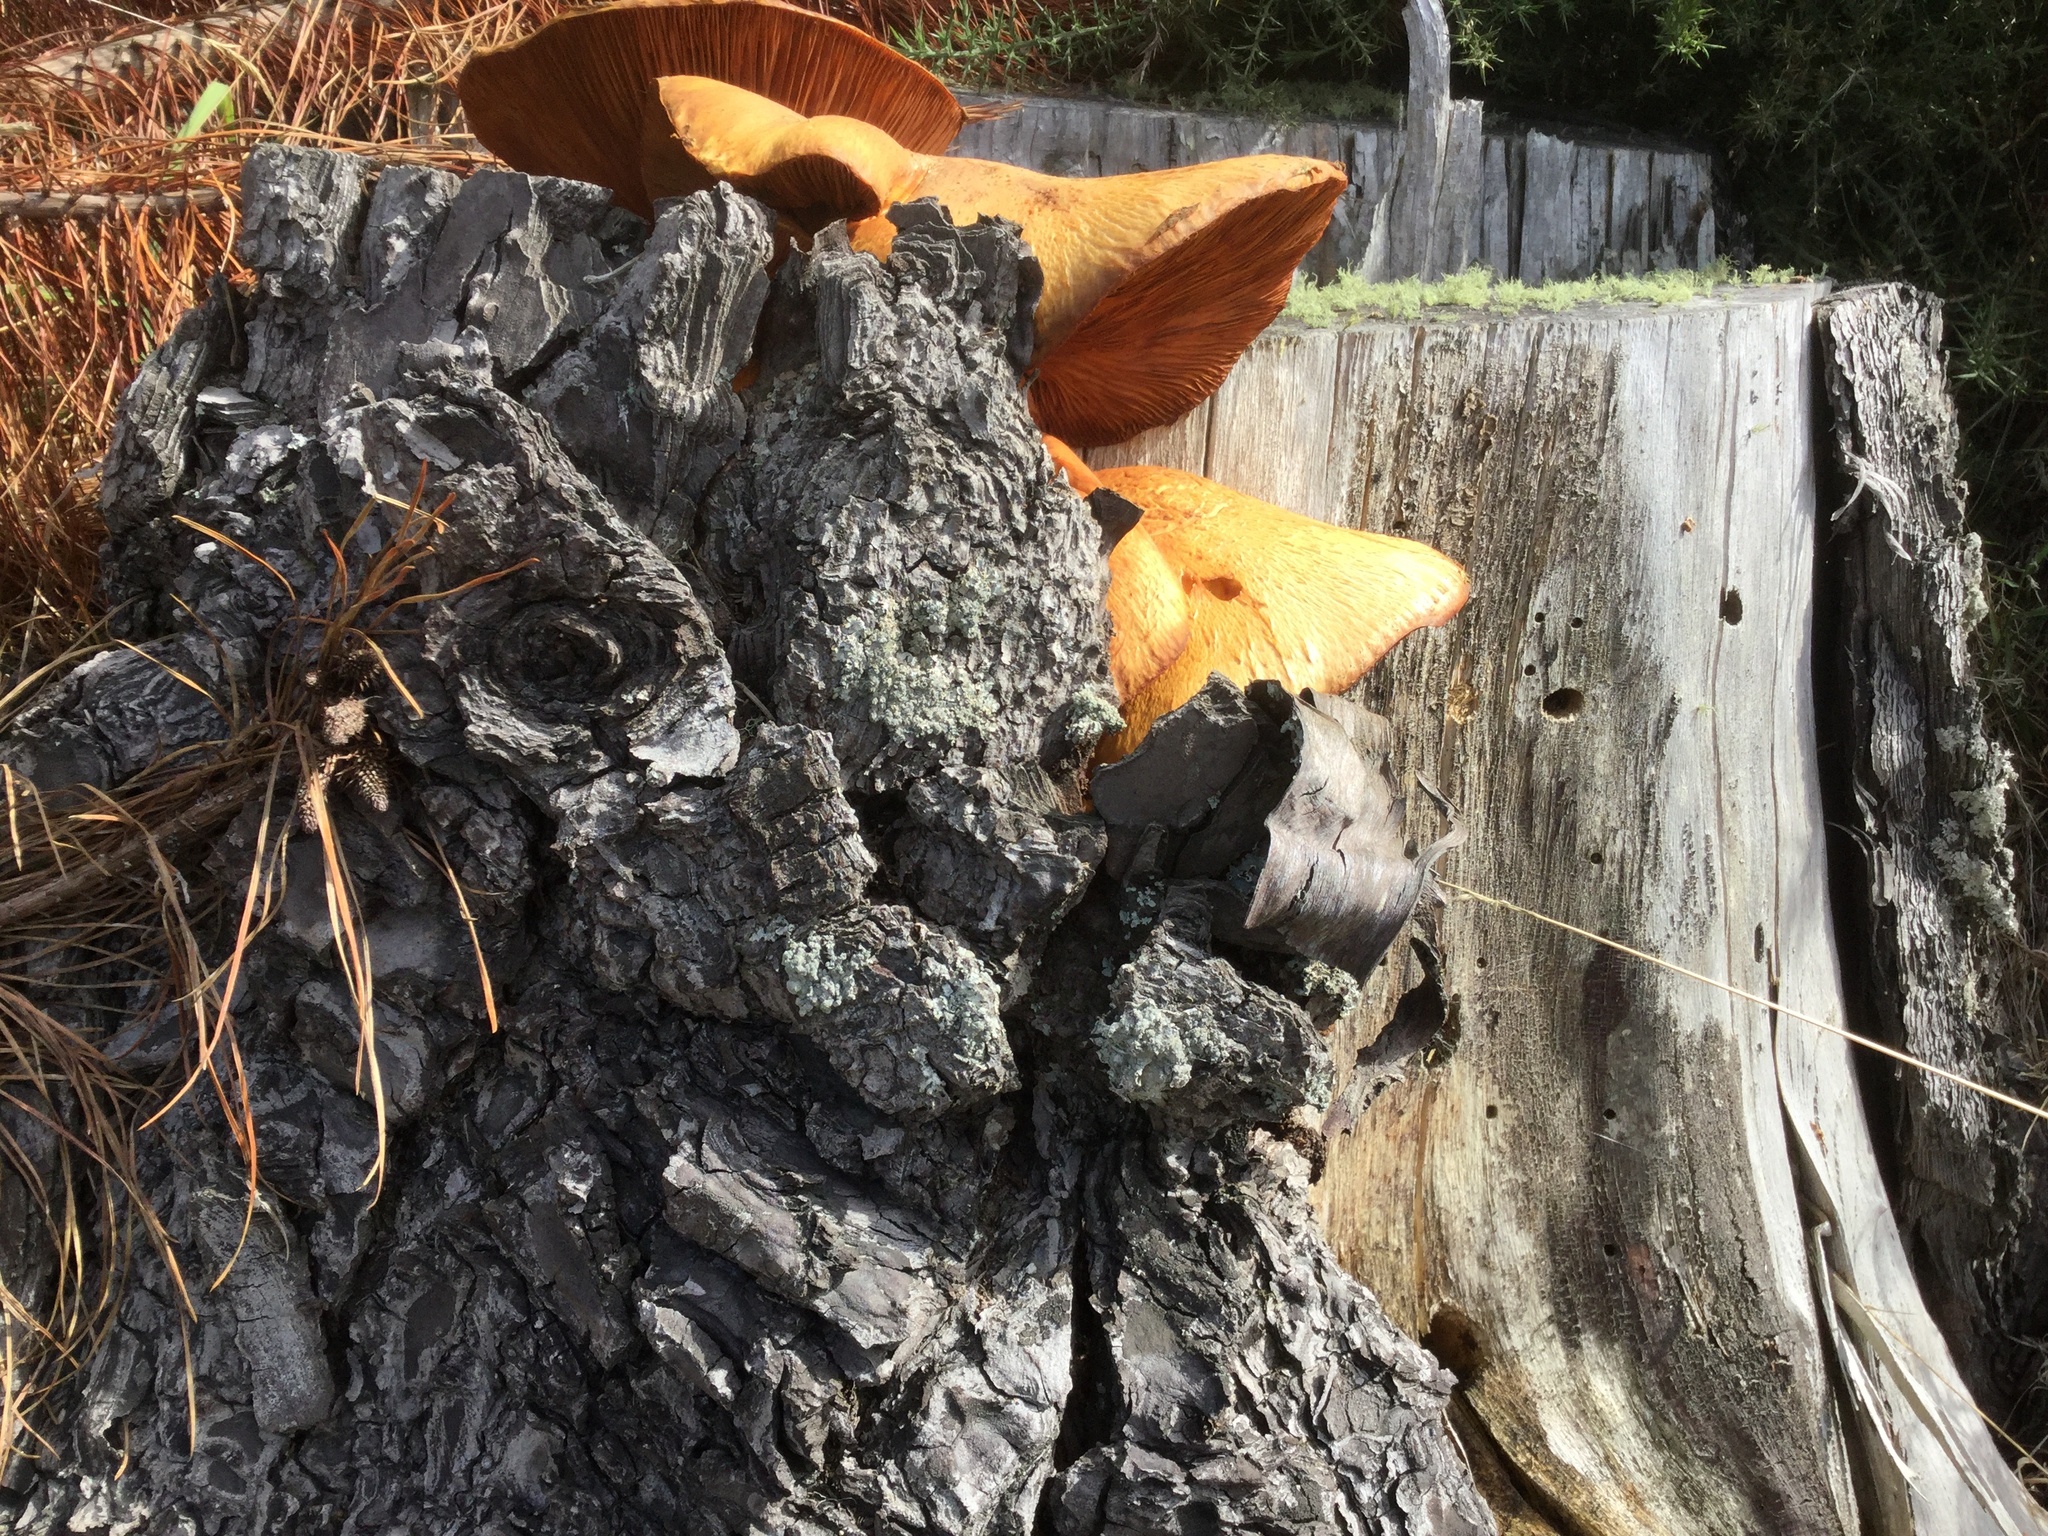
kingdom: Fungi
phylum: Basidiomycota
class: Agaricomycetes
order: Agaricales
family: Hymenogastraceae
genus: Gymnopilus
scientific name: Gymnopilus junonius
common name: Spectacular rustgill
